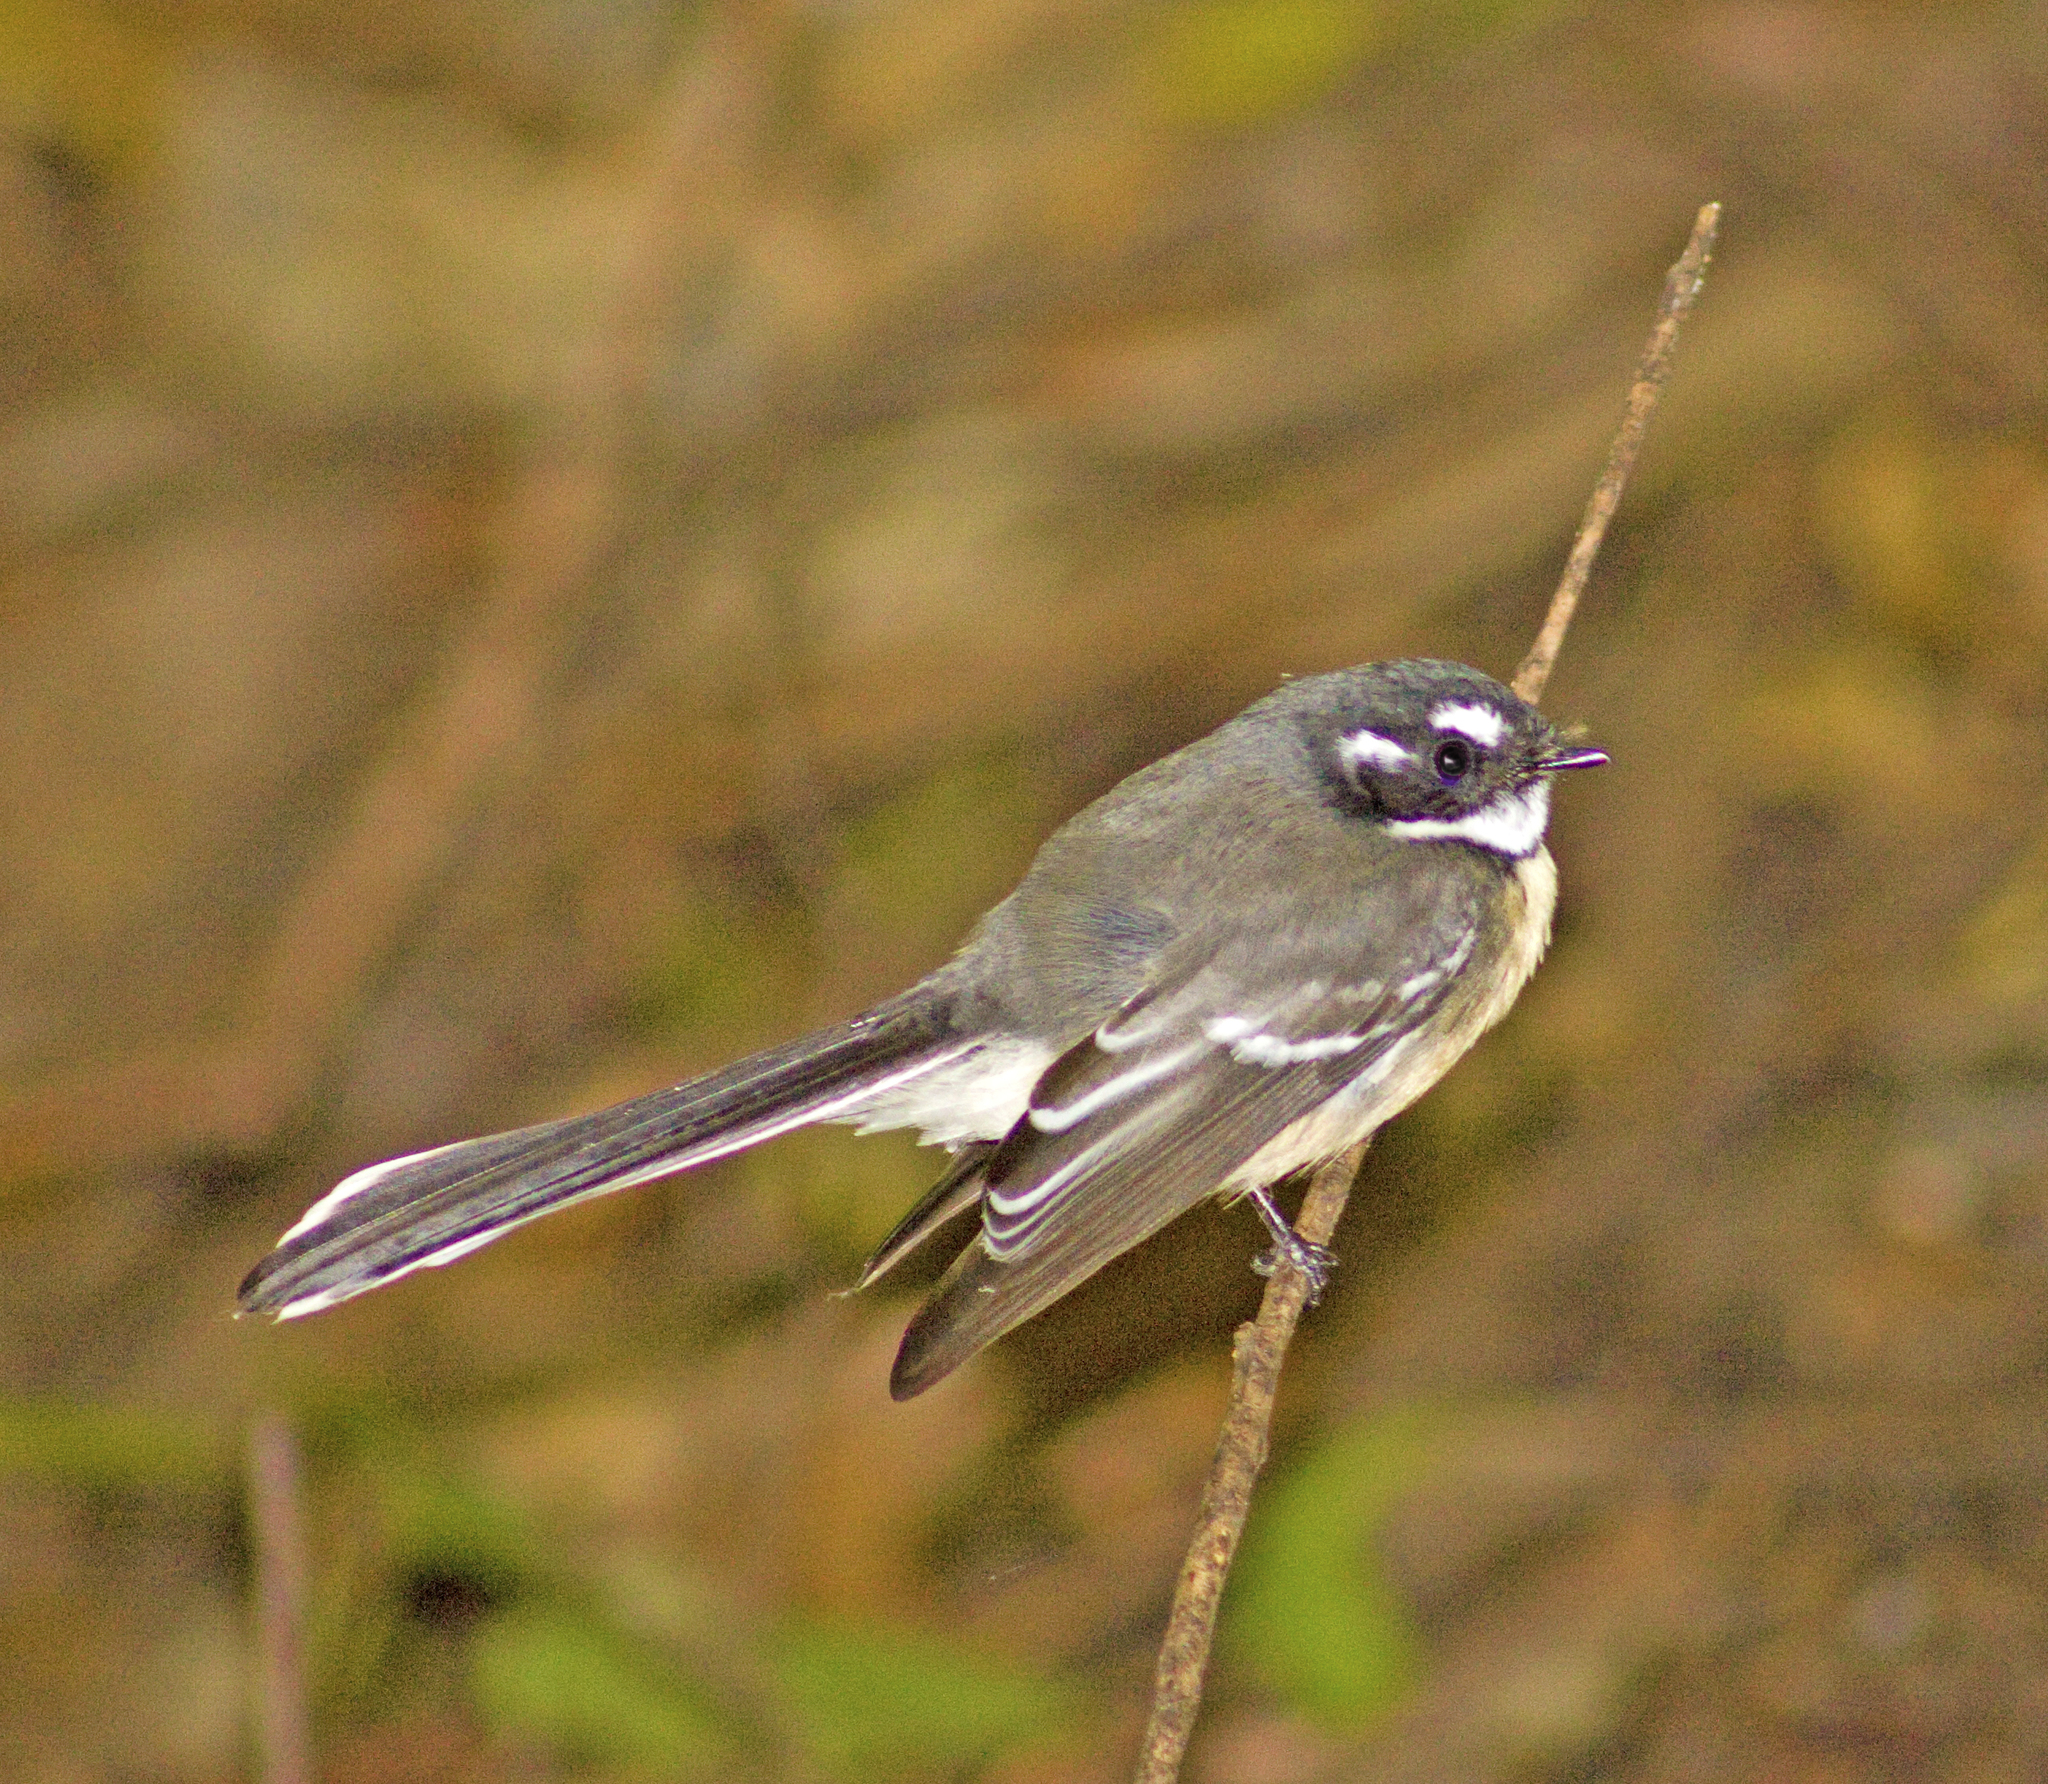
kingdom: Animalia
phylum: Chordata
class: Aves
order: Passeriformes
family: Rhipiduridae
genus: Rhipidura
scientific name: Rhipidura albiscapa
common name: Grey fantail
